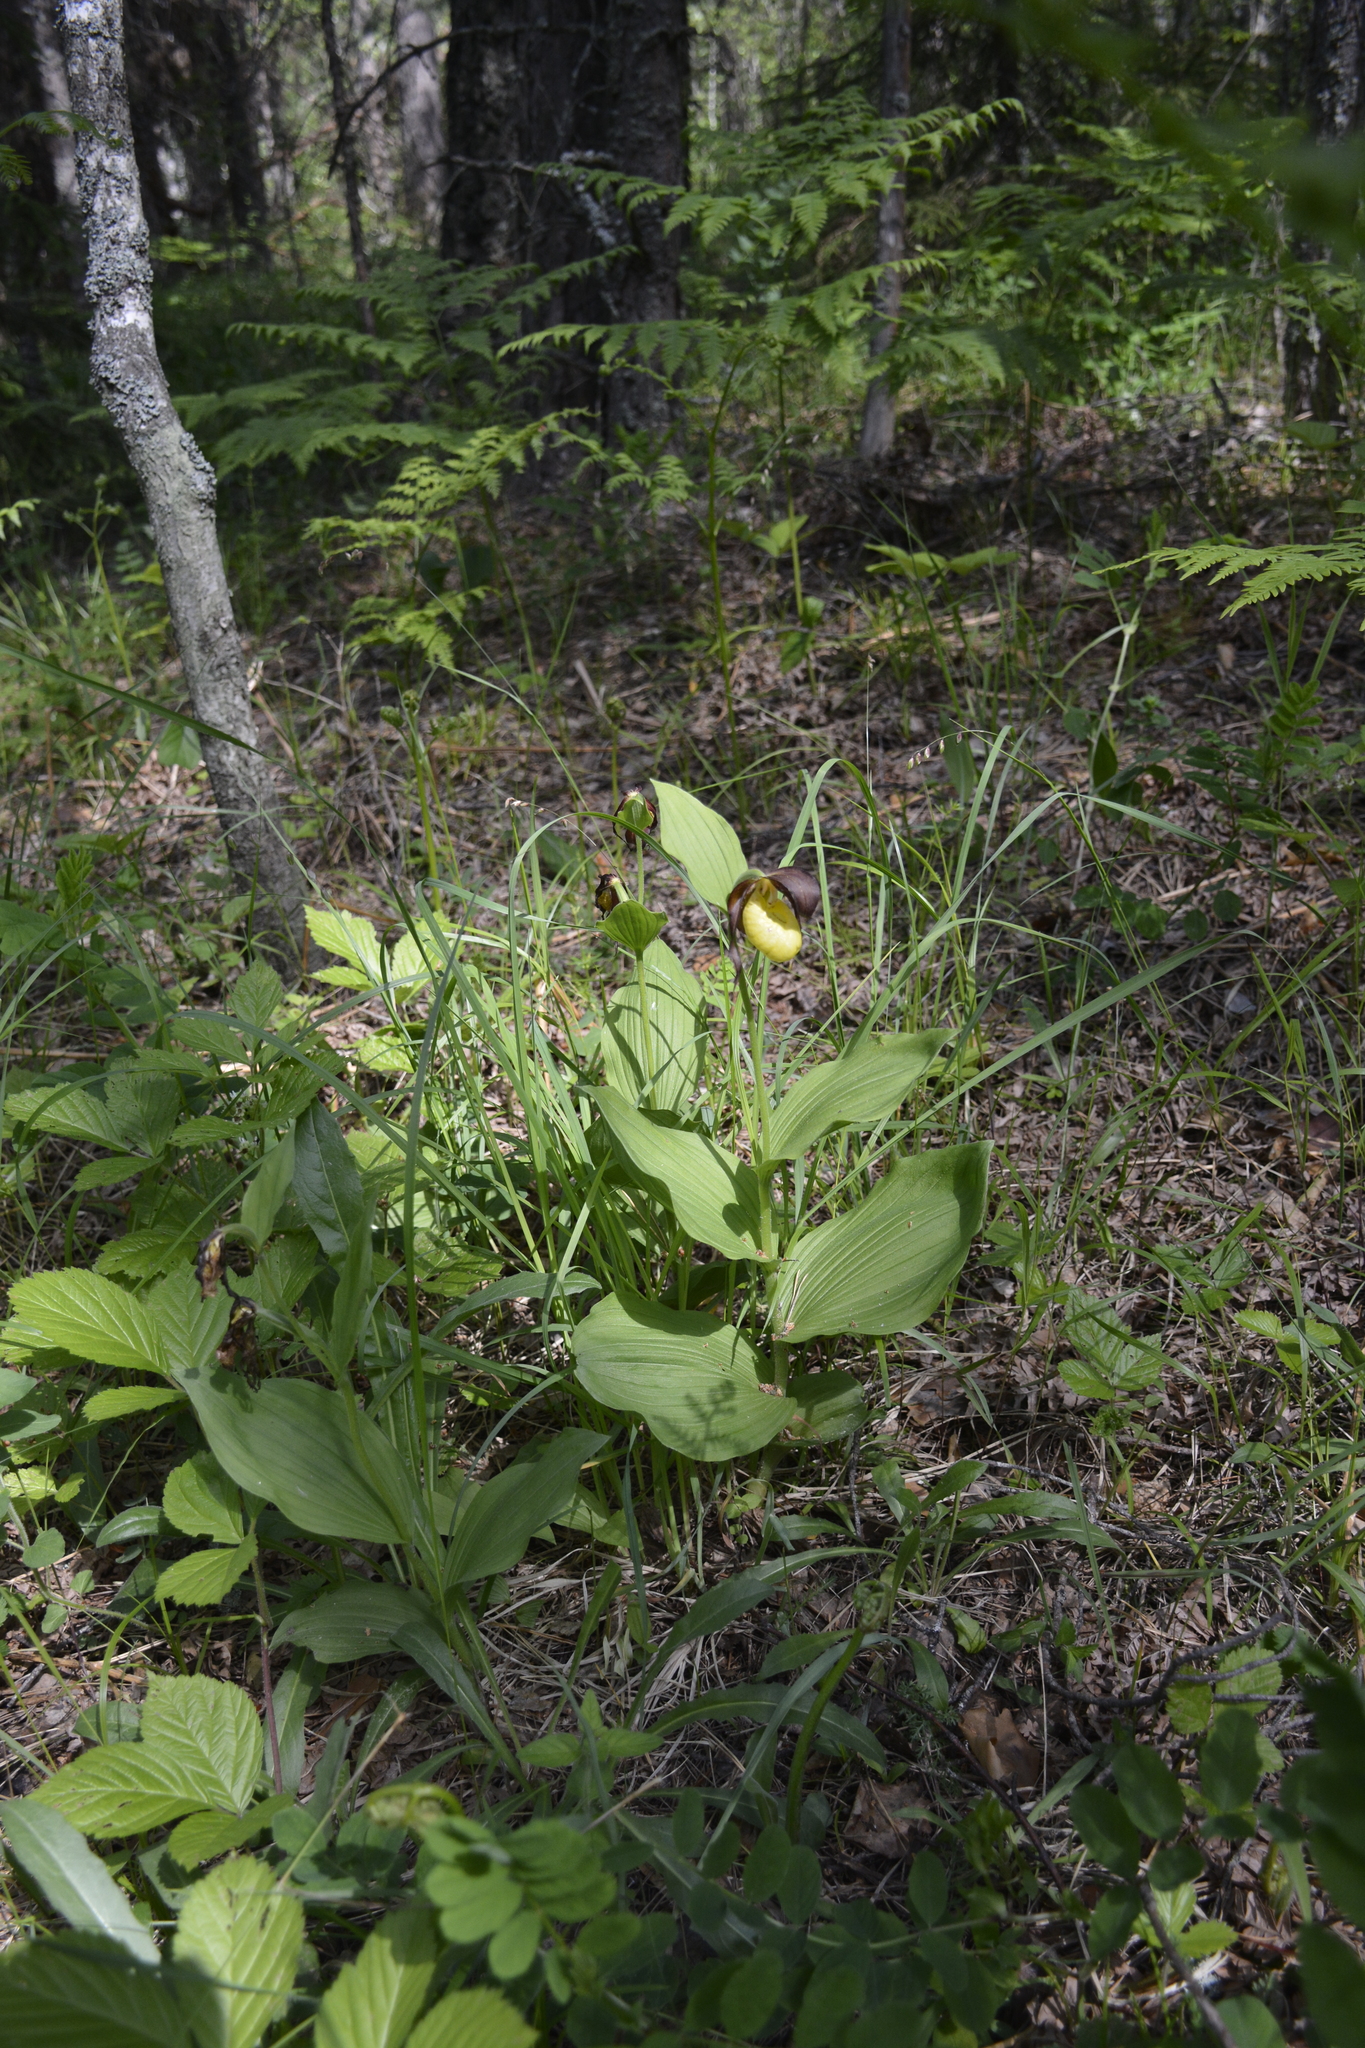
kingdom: Plantae
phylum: Tracheophyta
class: Liliopsida
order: Asparagales
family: Orchidaceae
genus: Cypripedium
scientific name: Cypripedium calceolus
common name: Lady's-slipper
